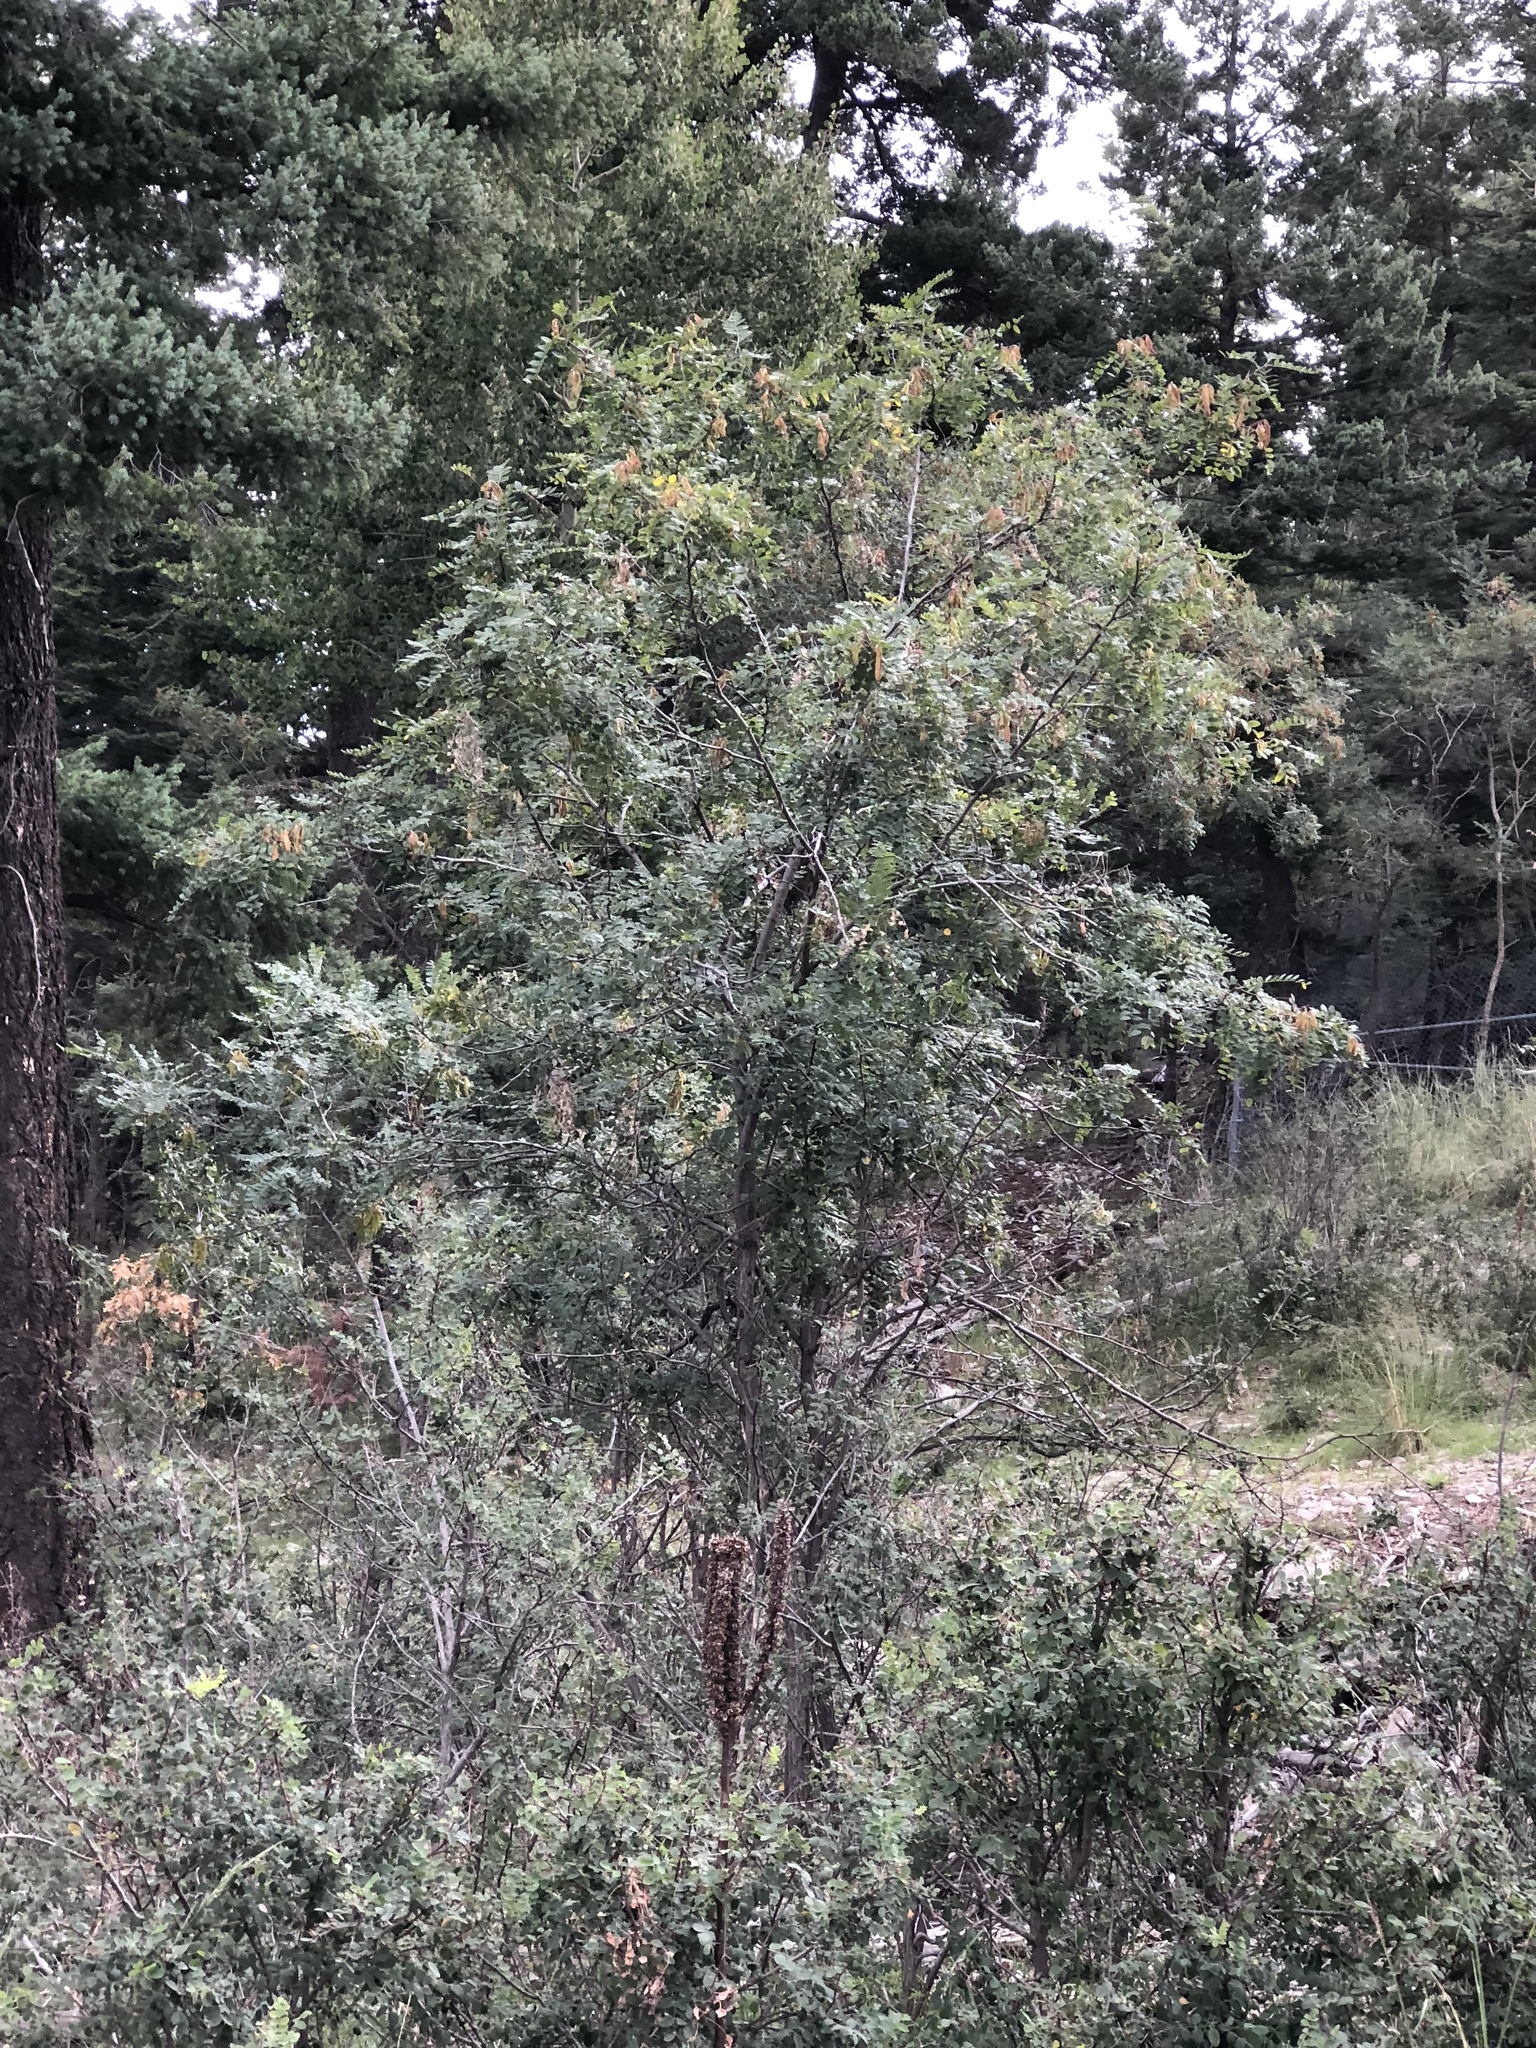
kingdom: Plantae
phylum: Tracheophyta
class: Magnoliopsida
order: Fabales
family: Fabaceae
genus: Robinia
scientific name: Robinia neomexicana
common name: New mexico locust
